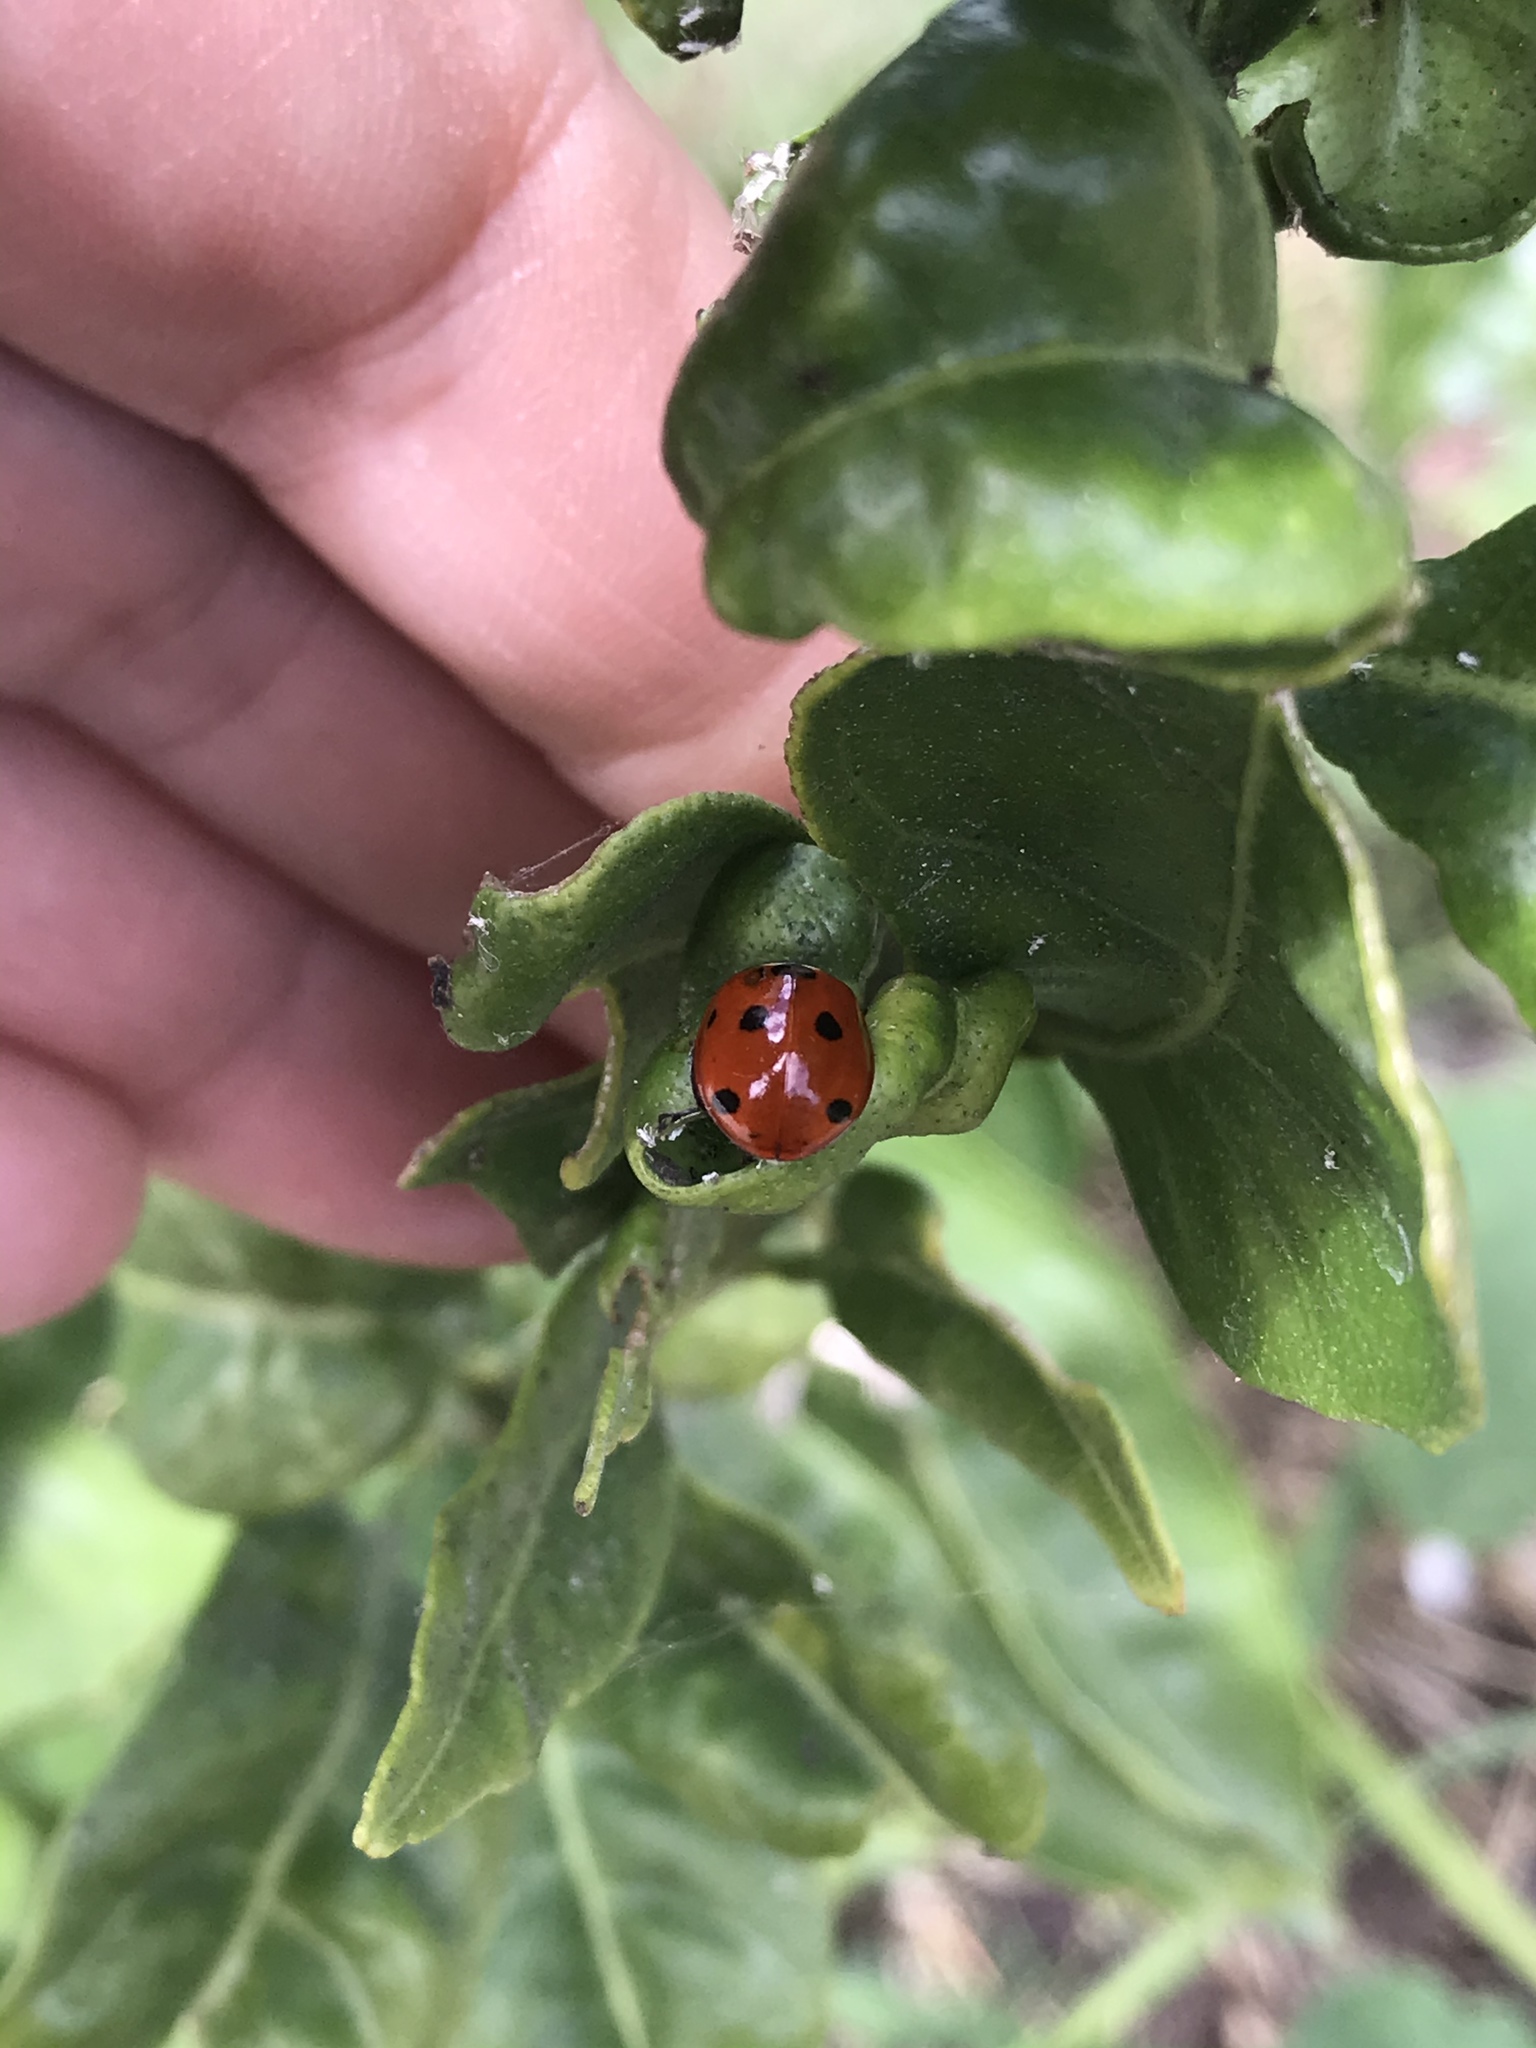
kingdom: Animalia
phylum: Arthropoda
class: Insecta
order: Coleoptera
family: Coccinellidae
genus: Coccinella
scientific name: Coccinella septempunctata
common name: Sevenspotted lady beetle
